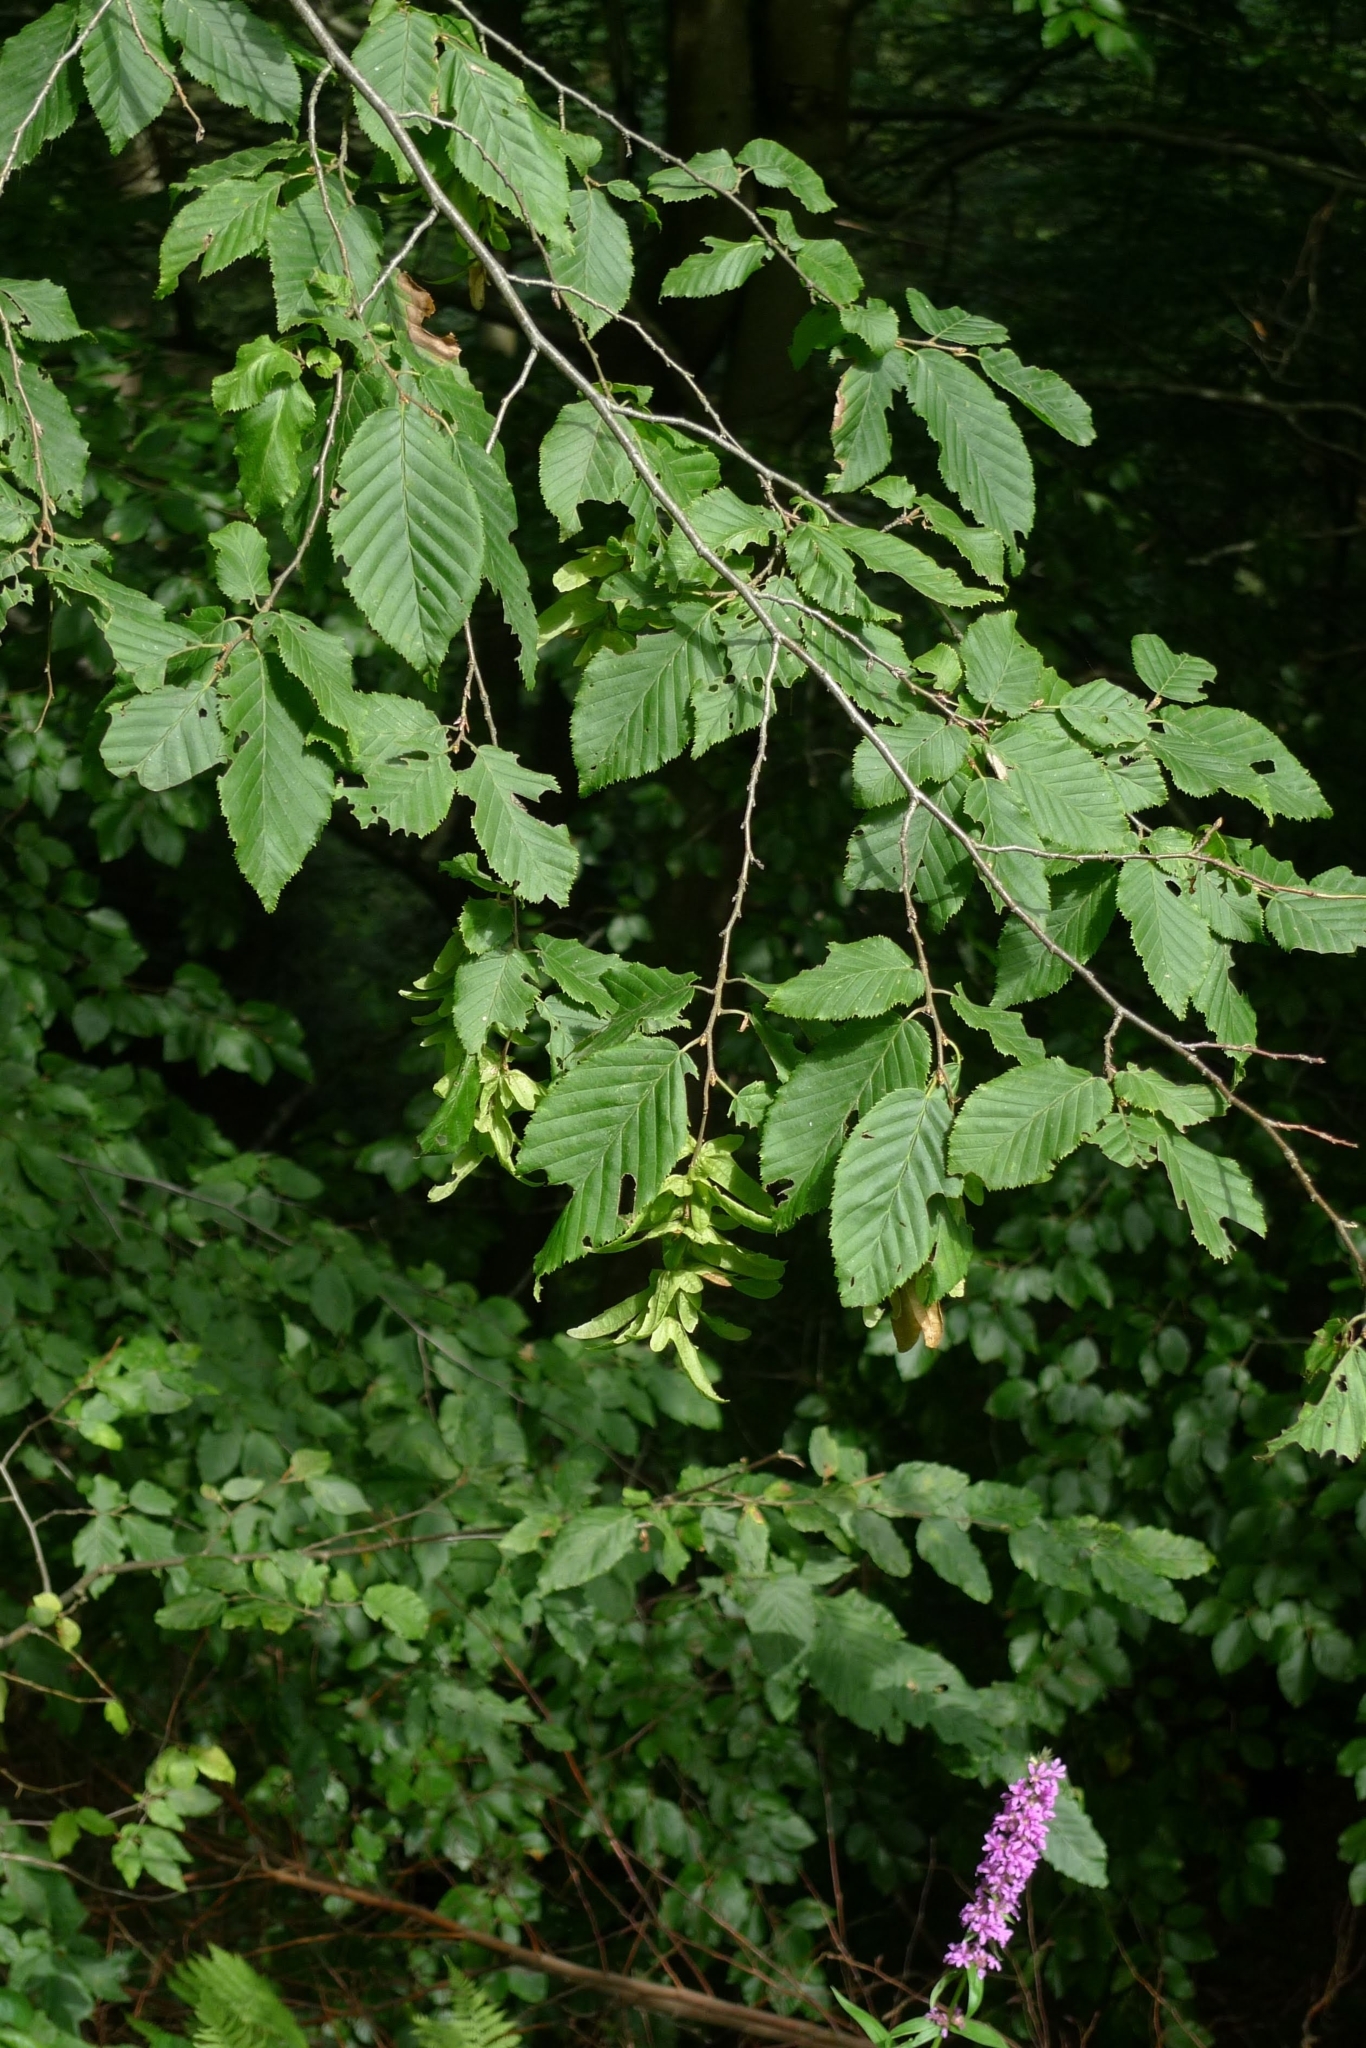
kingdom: Plantae
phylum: Tracheophyta
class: Magnoliopsida
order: Fagales
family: Betulaceae
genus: Carpinus
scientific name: Carpinus betulus
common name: Hornbeam
